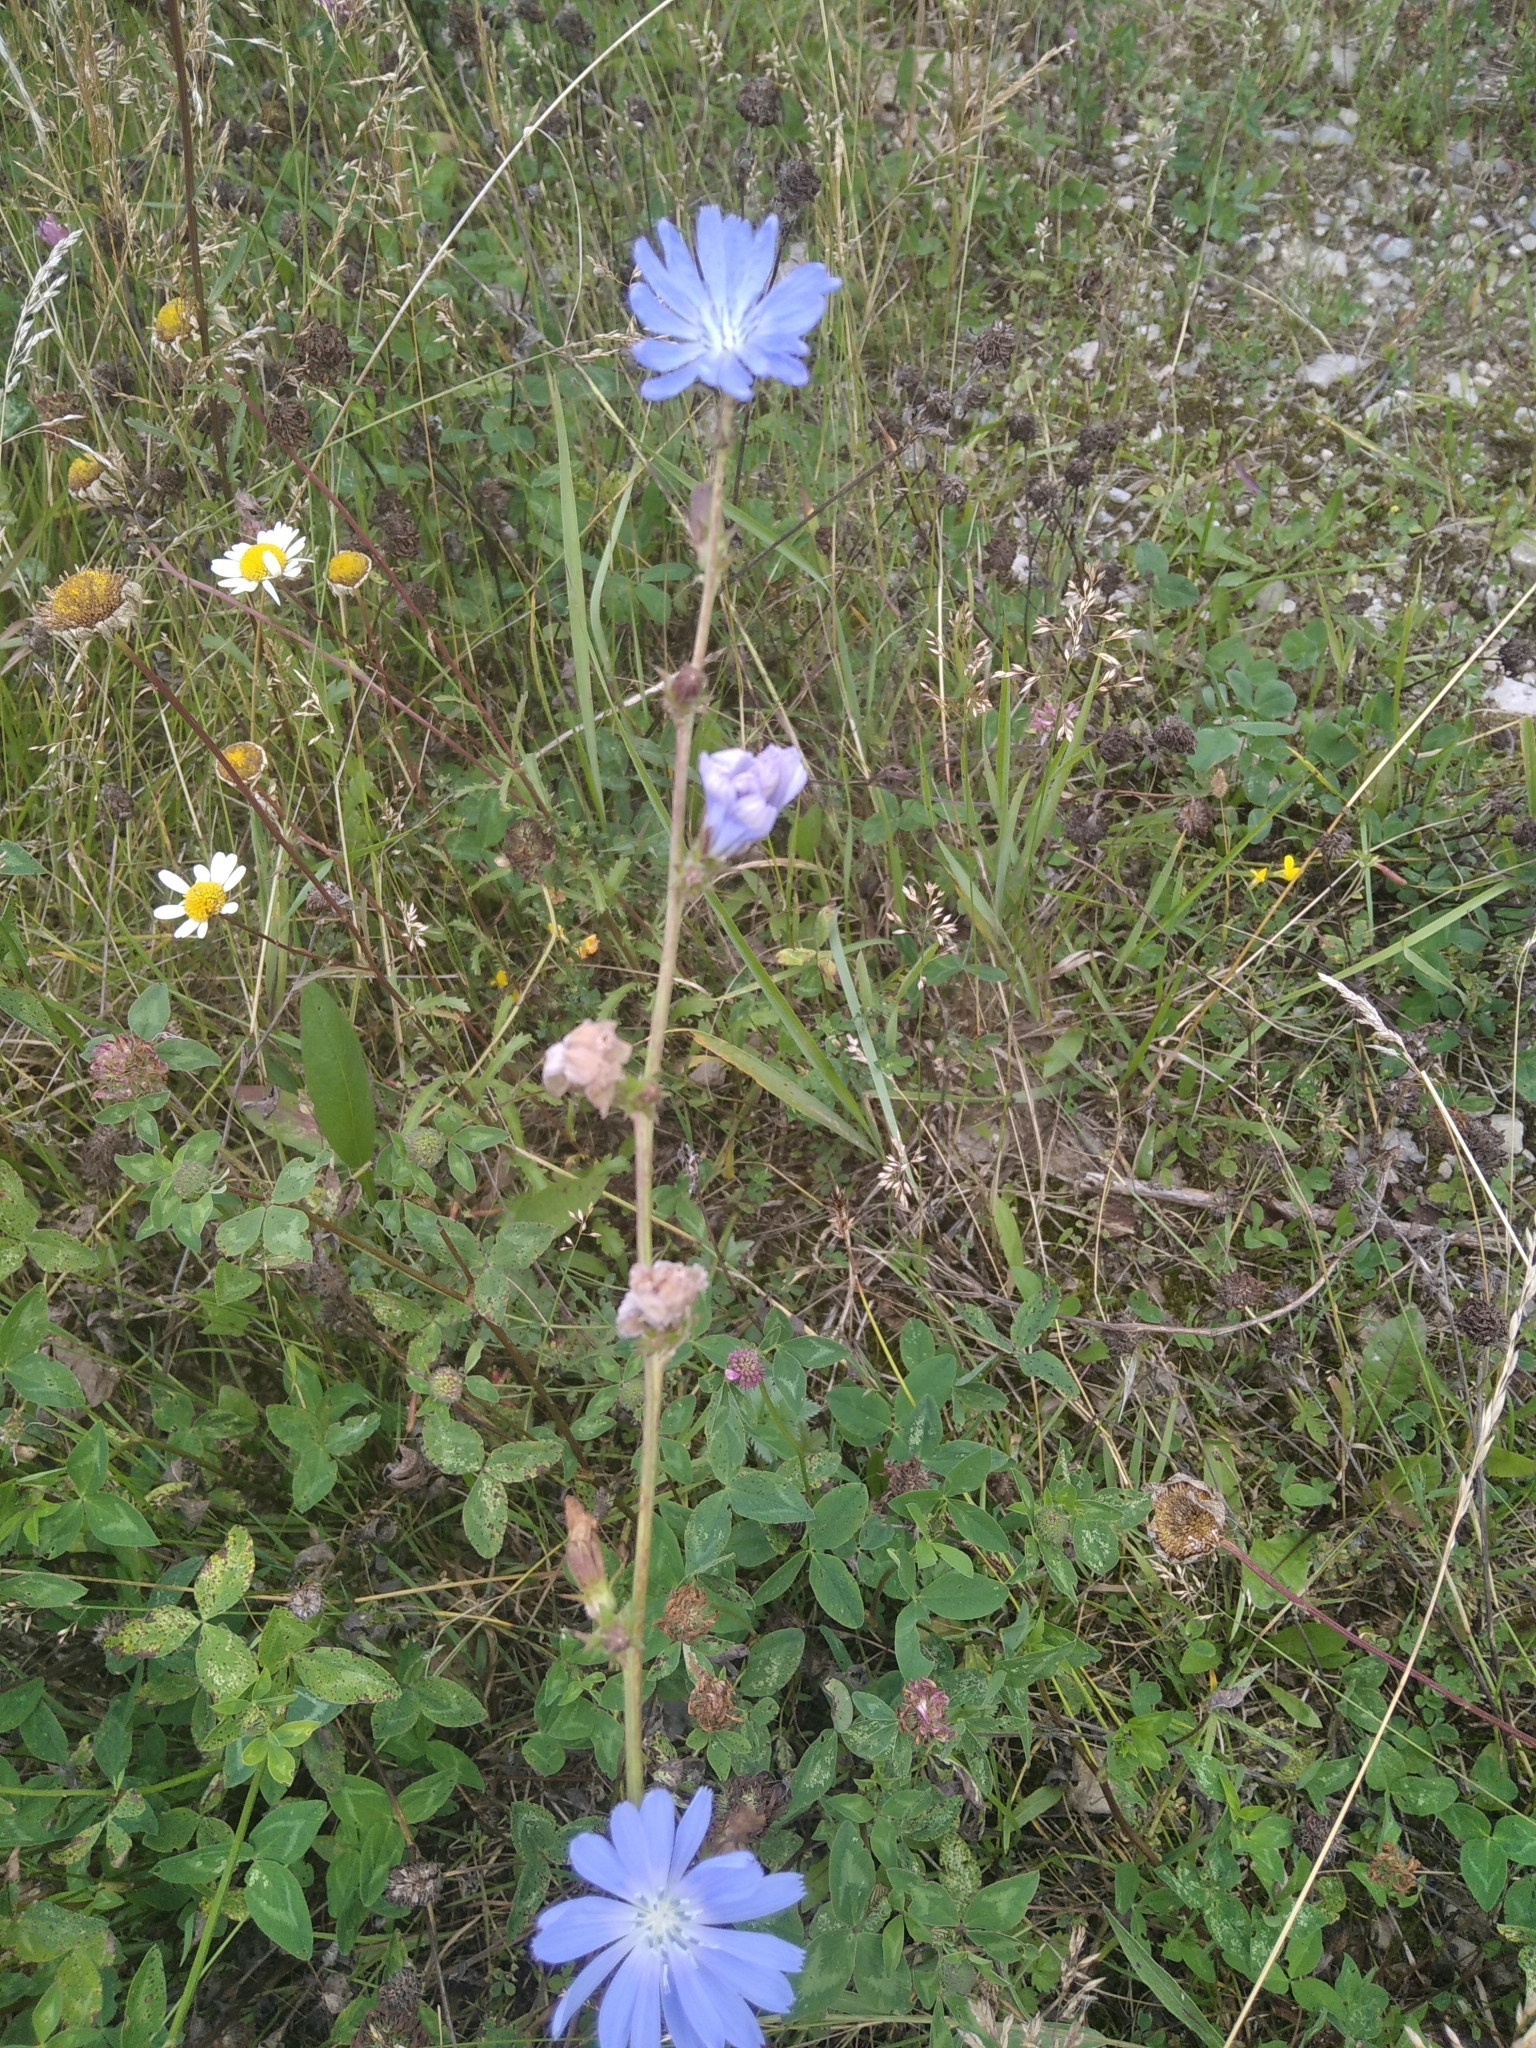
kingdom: Plantae
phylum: Tracheophyta
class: Magnoliopsida
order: Asterales
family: Asteraceae
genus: Cichorium
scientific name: Cichorium intybus
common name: Chicory
